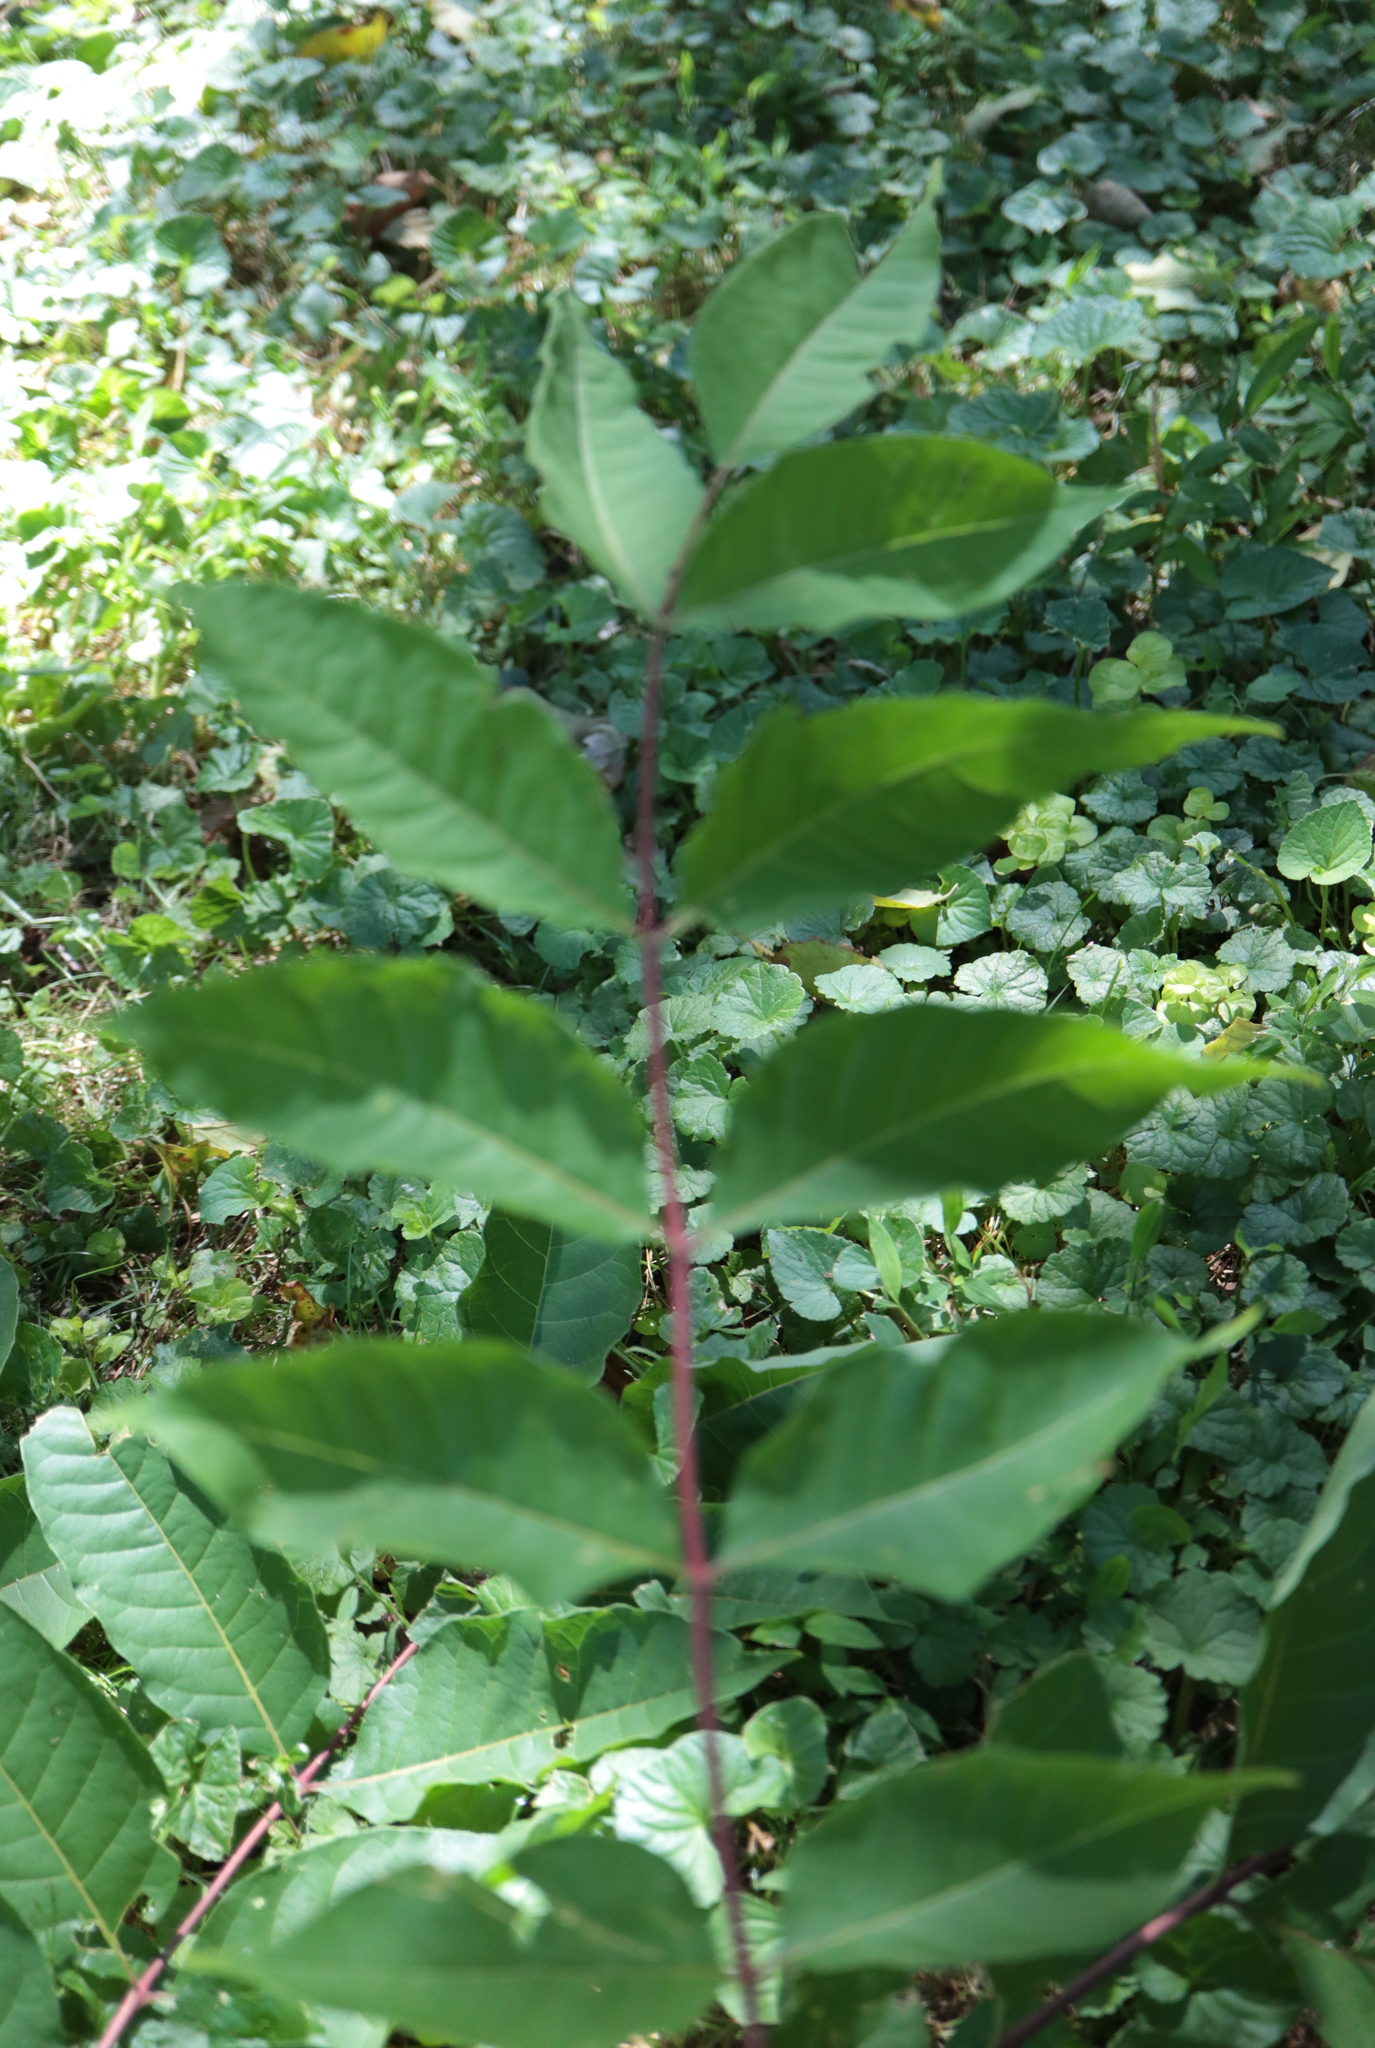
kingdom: Plantae
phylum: Tracheophyta
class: Magnoliopsida
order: Sapindales
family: Rutaceae
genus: Phellodendron
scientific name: Phellodendron amurense
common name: Amur corktree
